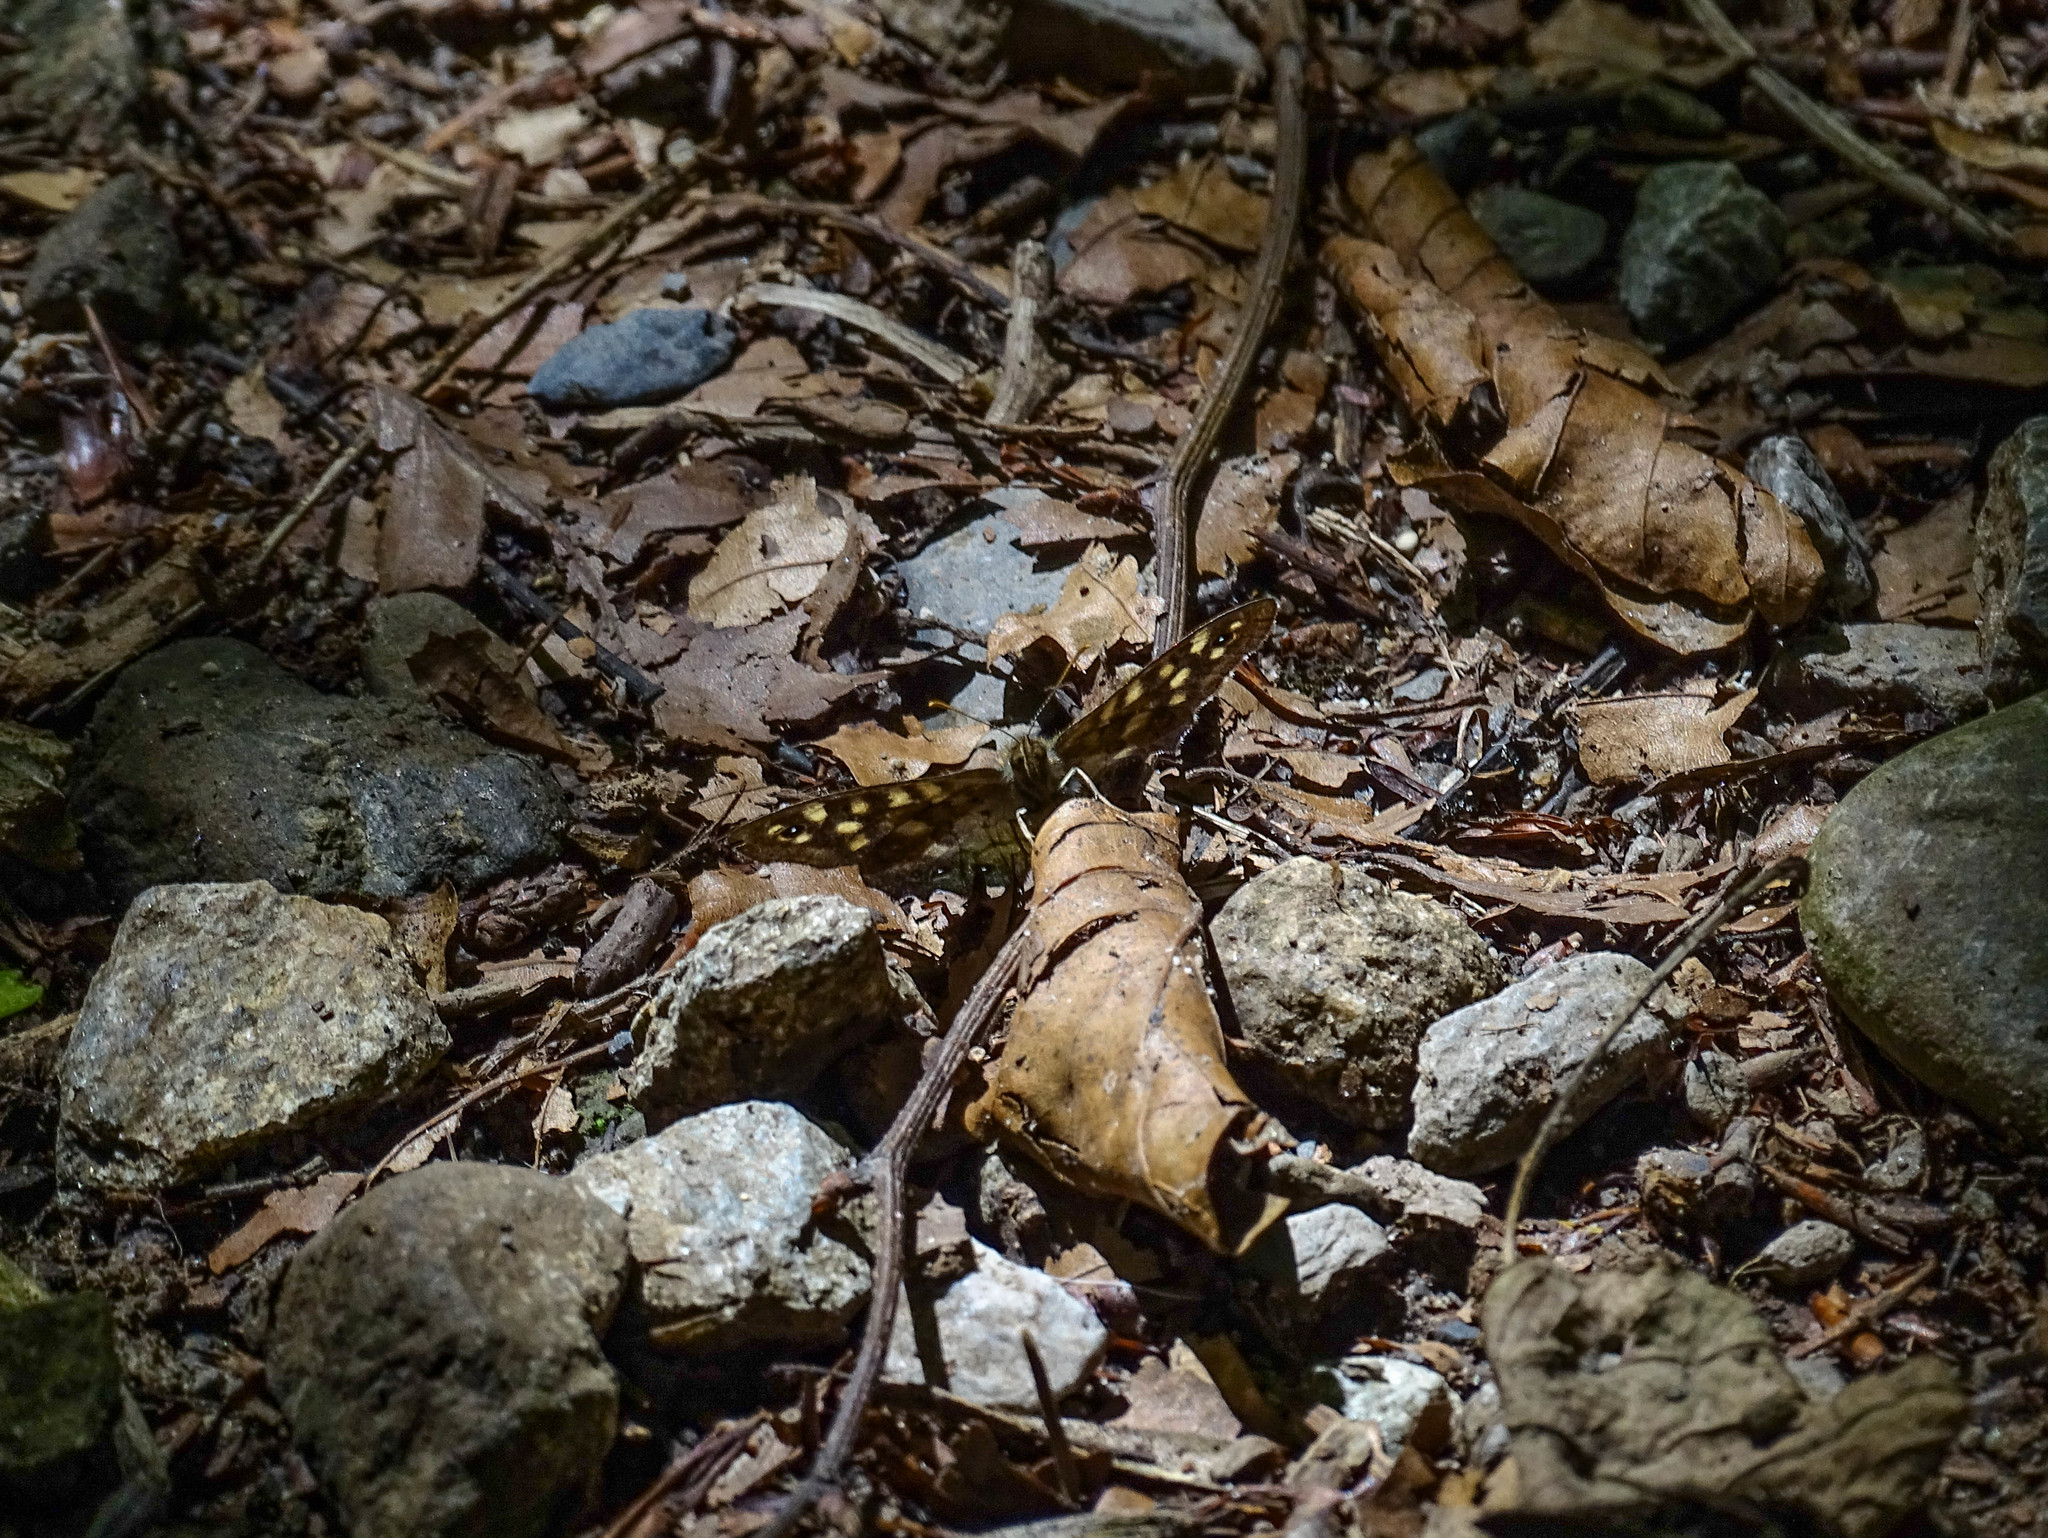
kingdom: Animalia
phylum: Arthropoda
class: Insecta
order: Lepidoptera
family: Nymphalidae
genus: Pararge
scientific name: Pararge aegeria
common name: Speckled wood
